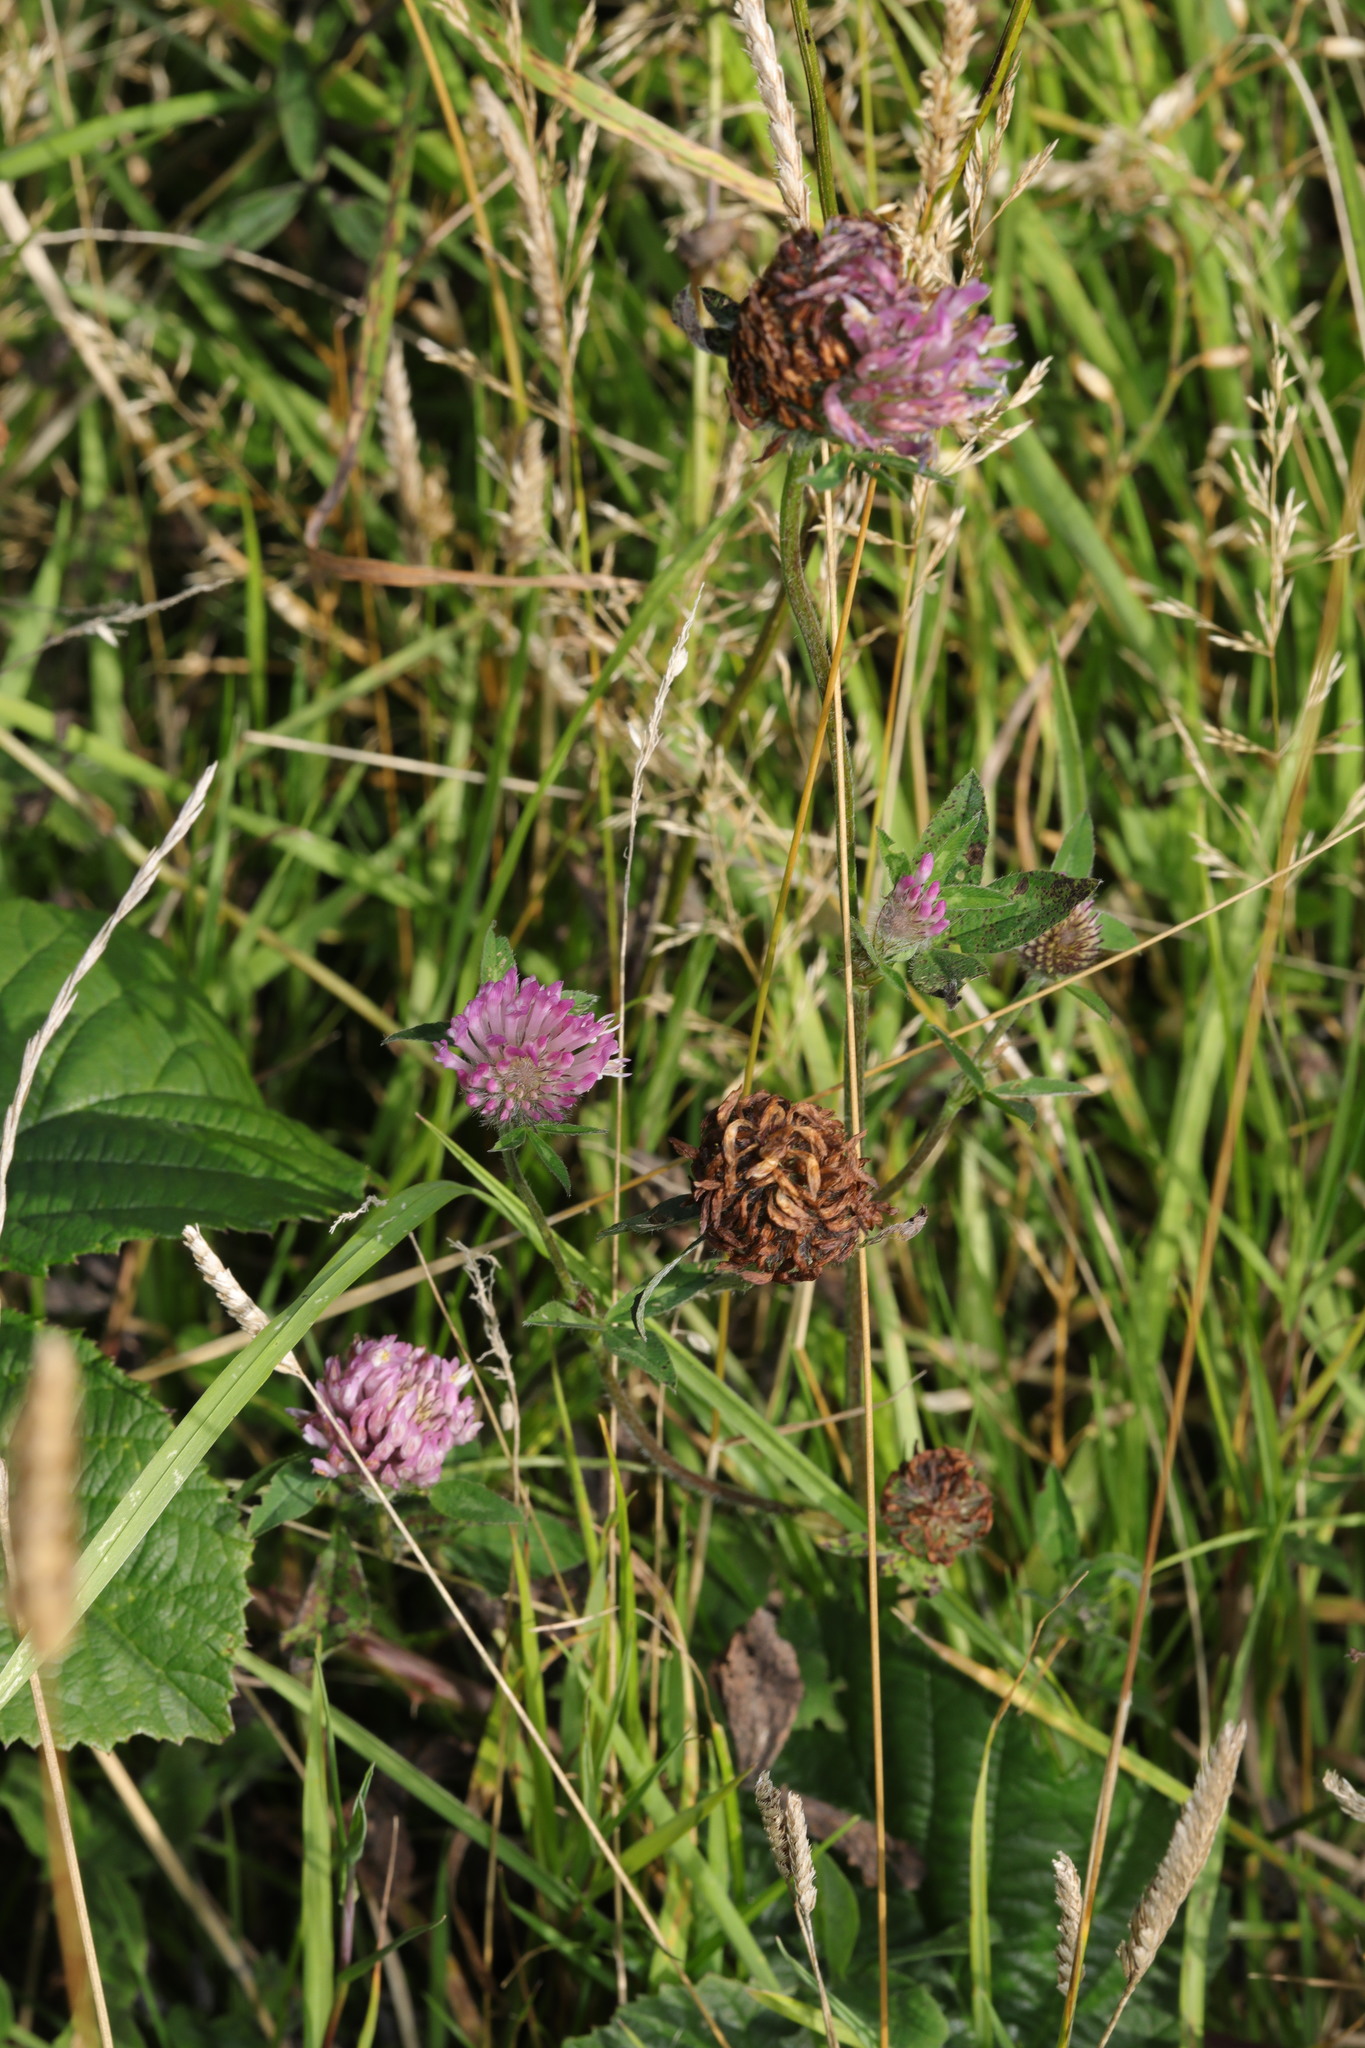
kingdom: Plantae
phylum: Tracheophyta
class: Magnoliopsida
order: Fabales
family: Fabaceae
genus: Trifolium
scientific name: Trifolium pratense
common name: Red clover
